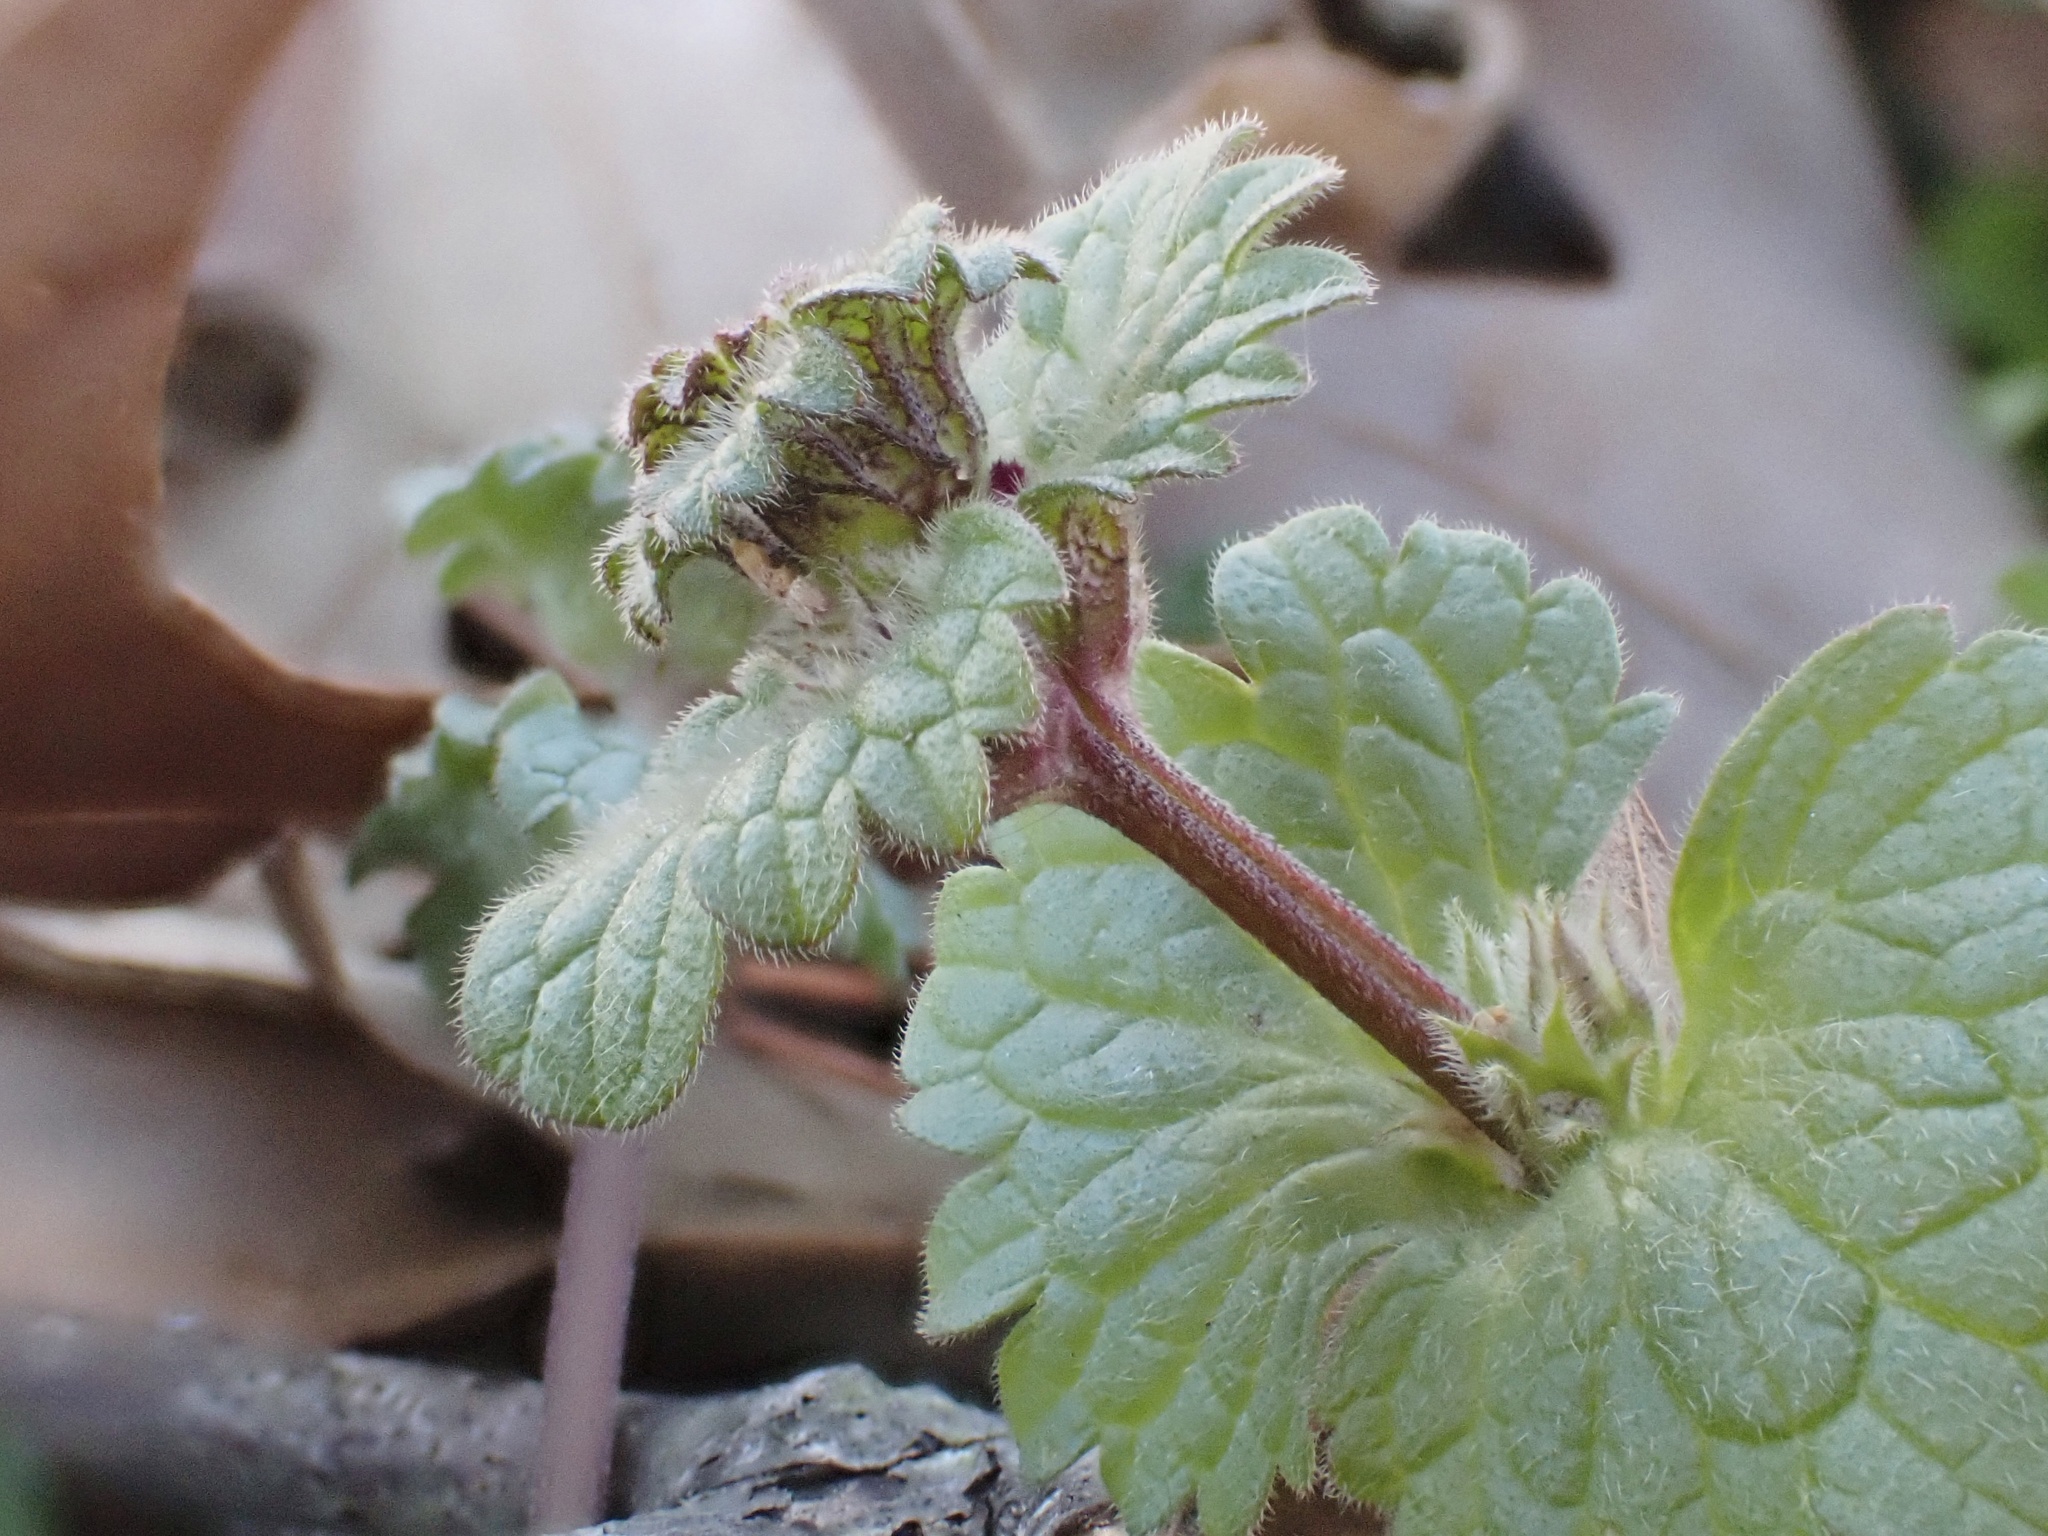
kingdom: Plantae
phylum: Tracheophyta
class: Magnoliopsida
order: Lamiales
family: Lamiaceae
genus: Lamium
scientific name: Lamium amplexicaule
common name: Henbit dead-nettle
